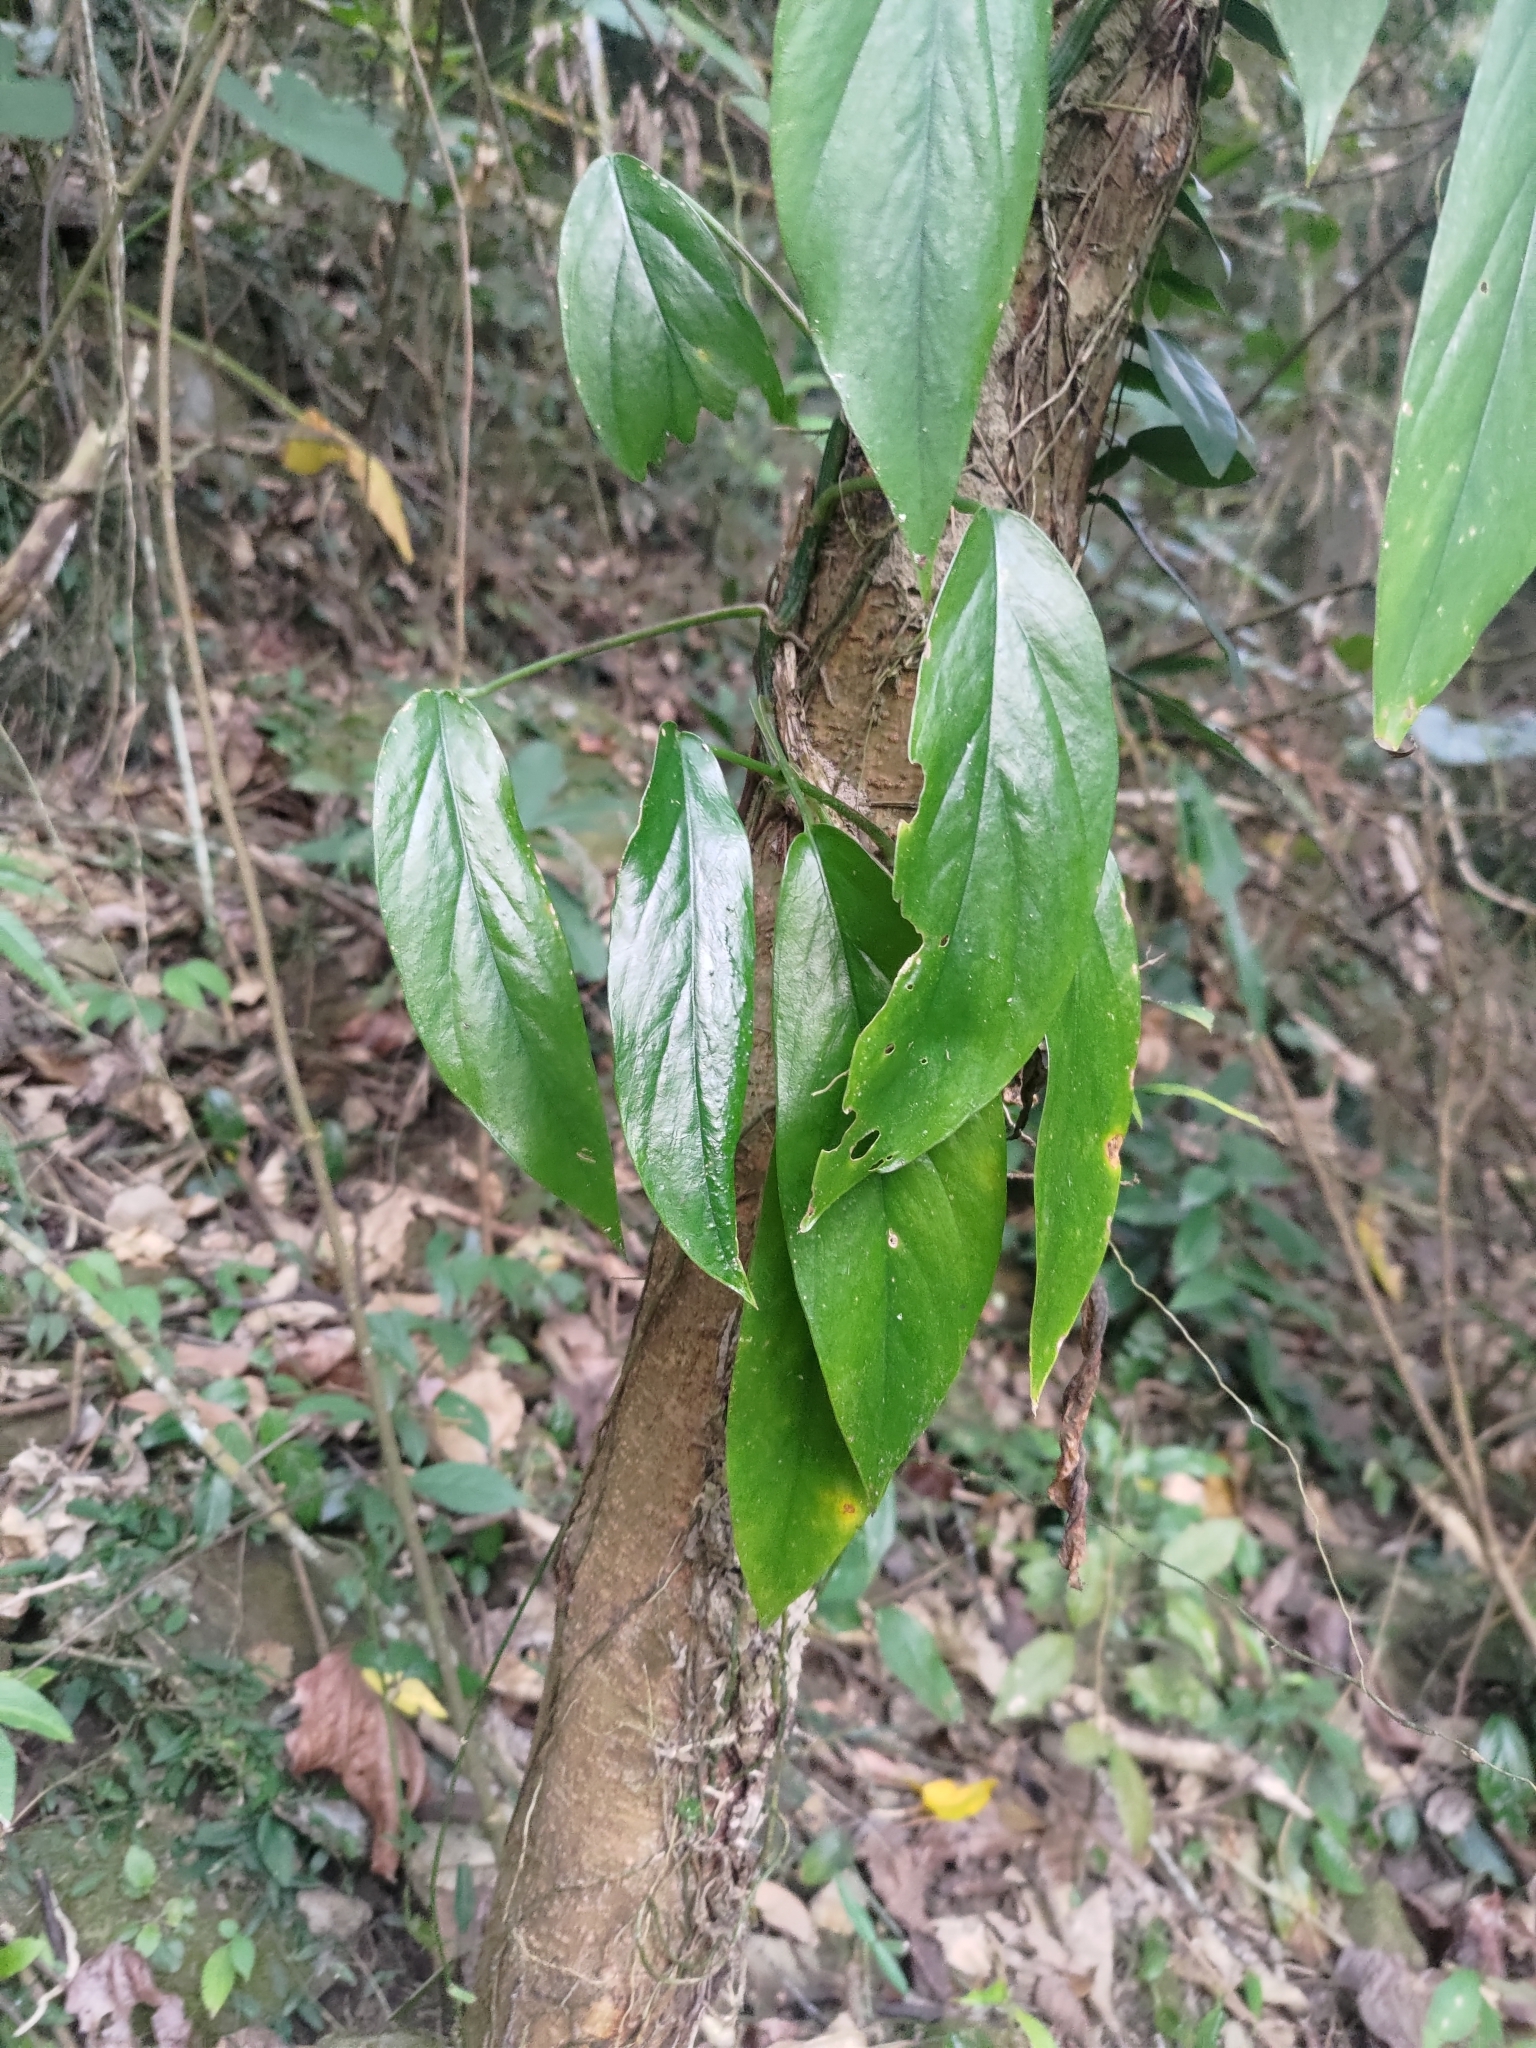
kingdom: Plantae
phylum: Tracheophyta
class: Liliopsida
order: Alismatales
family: Araceae
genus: Epipremnum
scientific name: Epipremnum pinnatum
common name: Centipede tongavine
